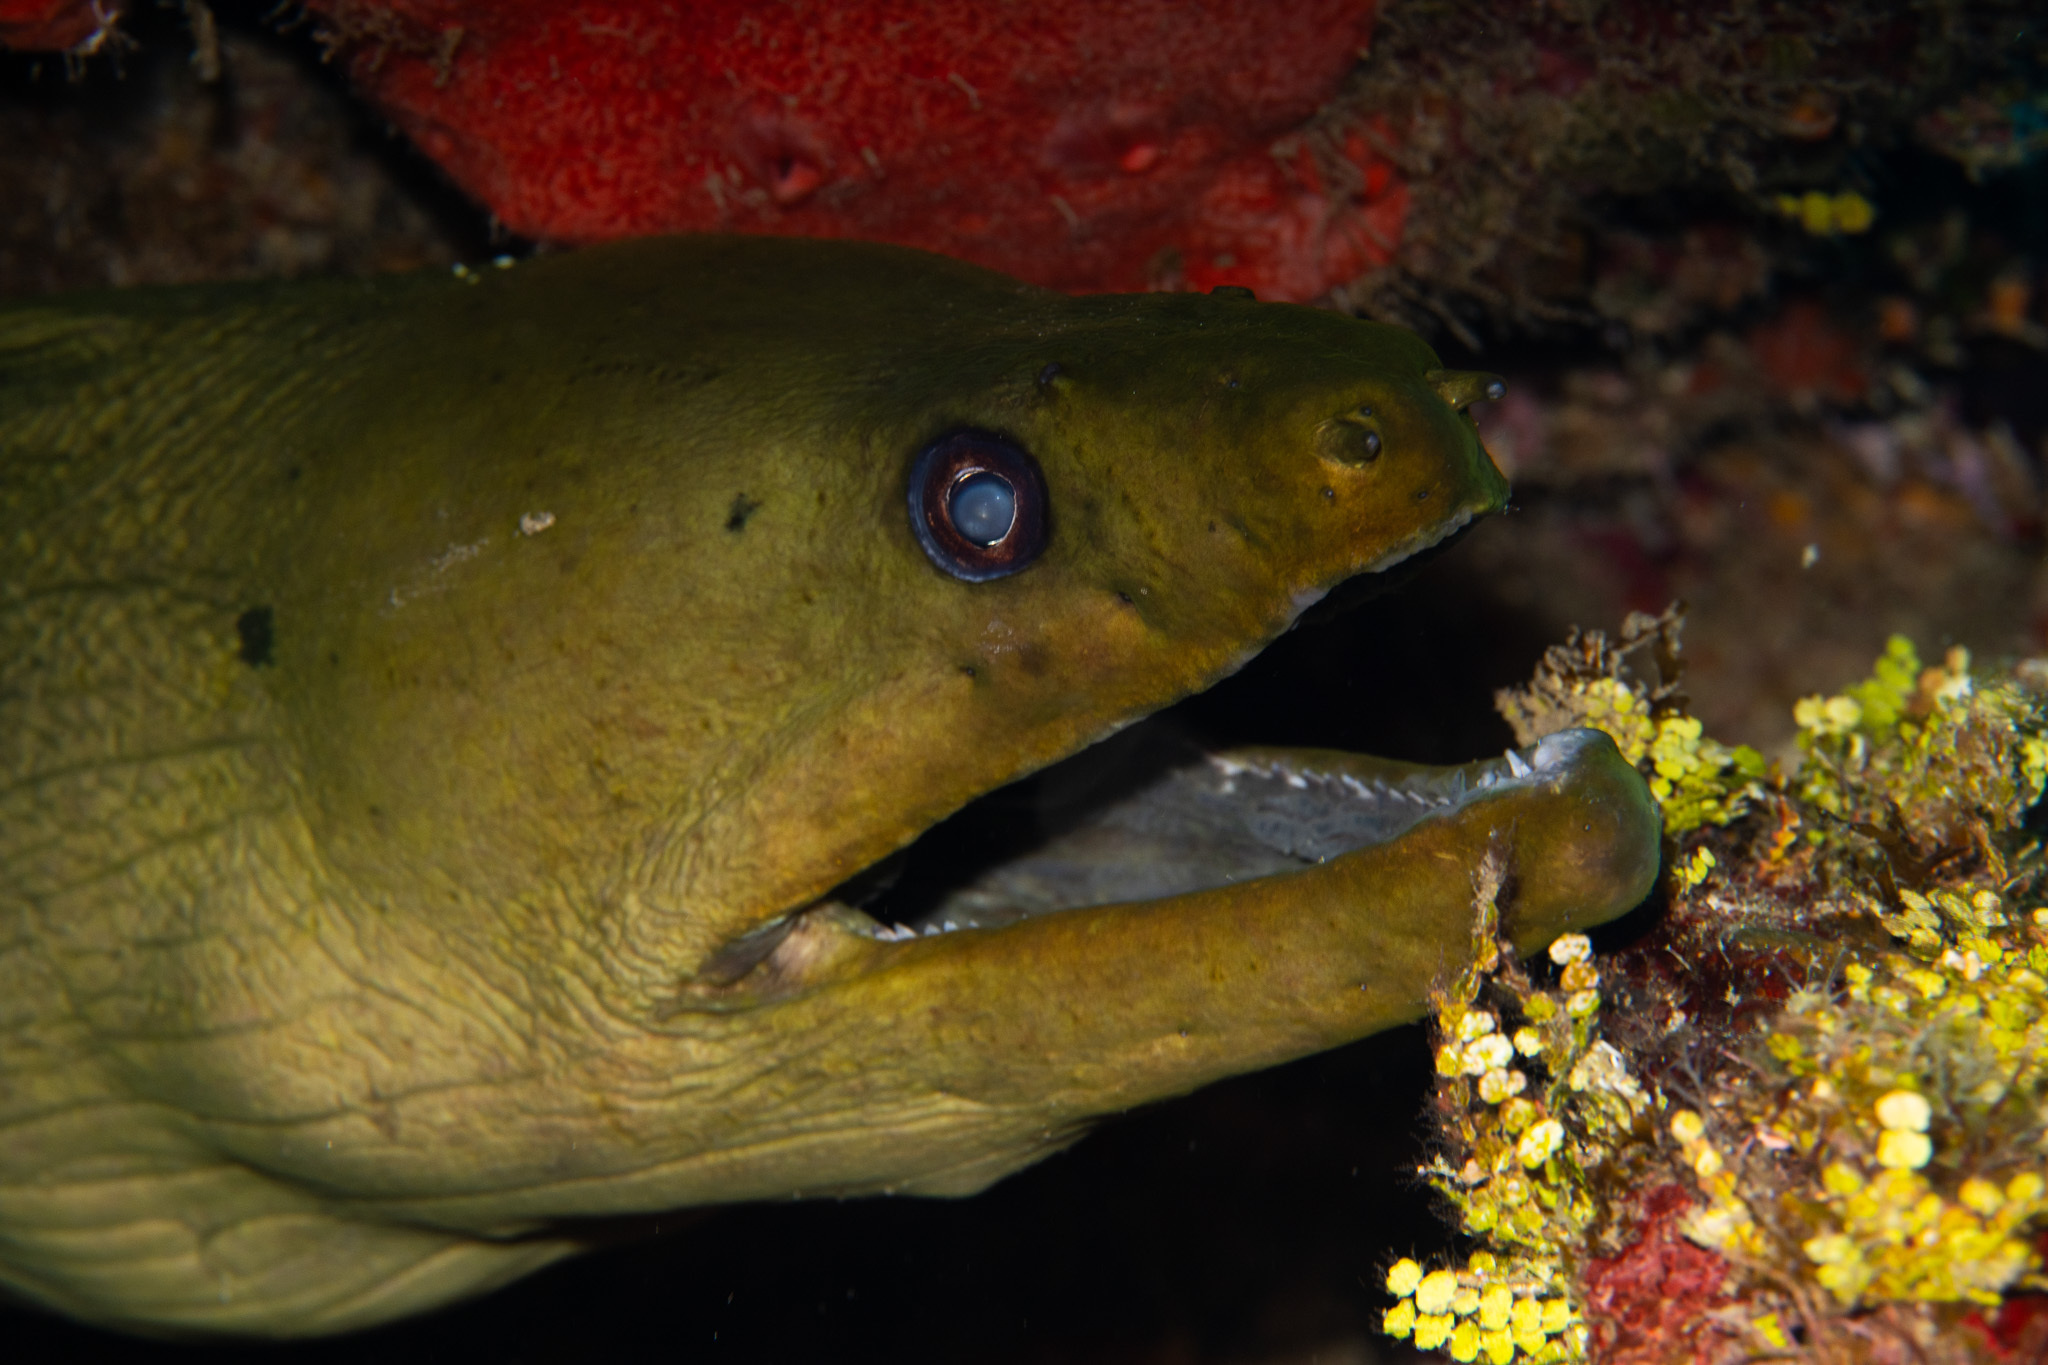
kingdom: Animalia
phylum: Chordata
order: Anguilliformes
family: Muraenidae
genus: Gymnothorax
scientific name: Gymnothorax funebris
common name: Green moray
